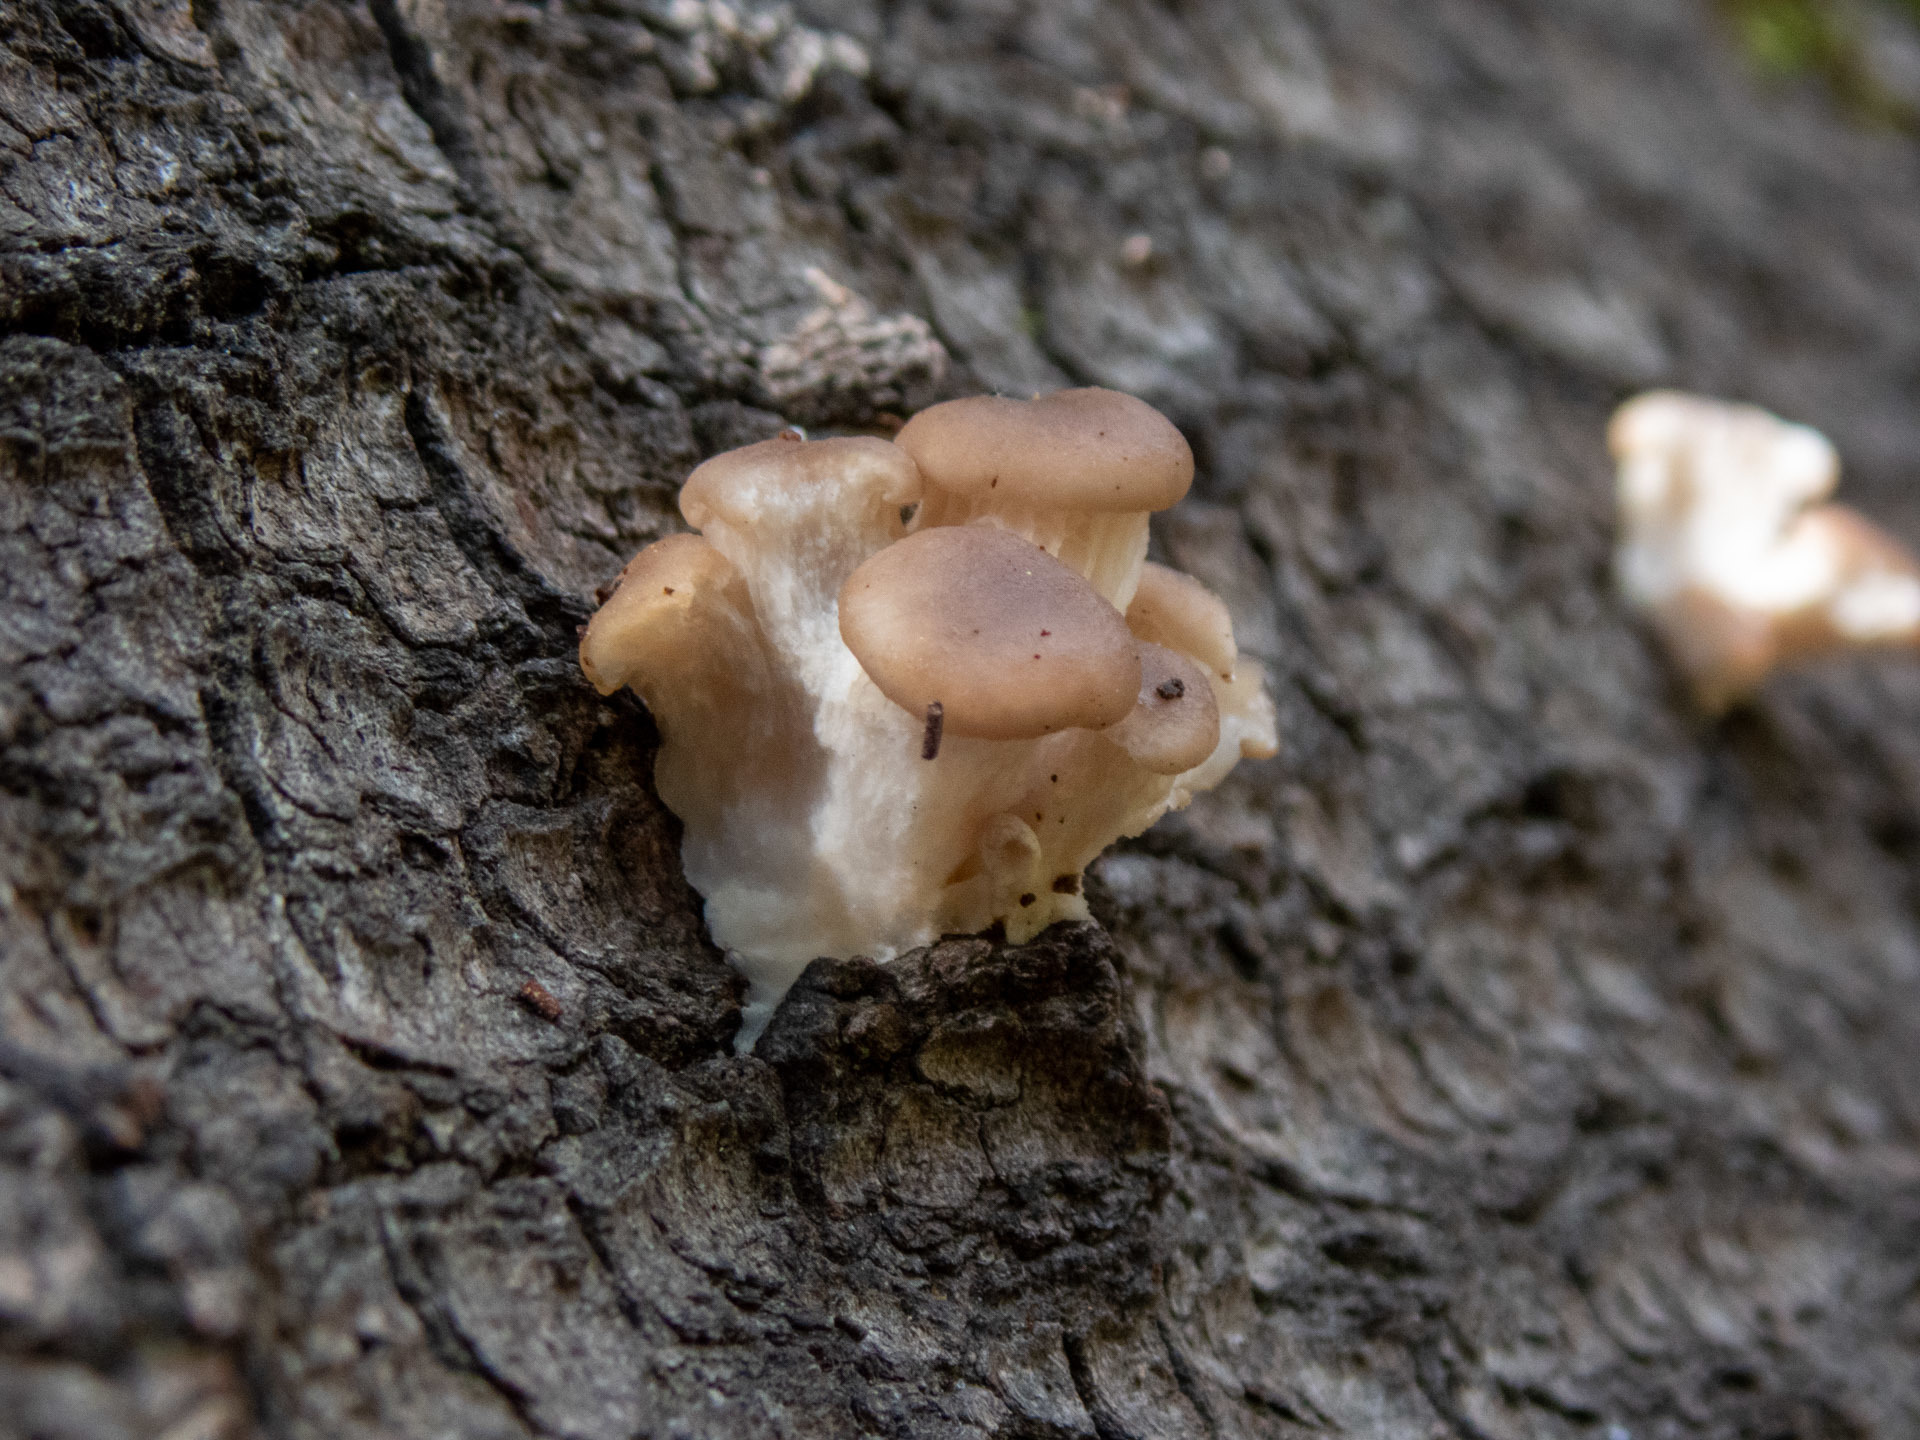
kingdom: Fungi
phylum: Basidiomycota
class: Agaricomycetes
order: Agaricales
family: Pleurotaceae
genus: Pleurotus
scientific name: Pleurotus pulmonarius
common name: Pale oyster
